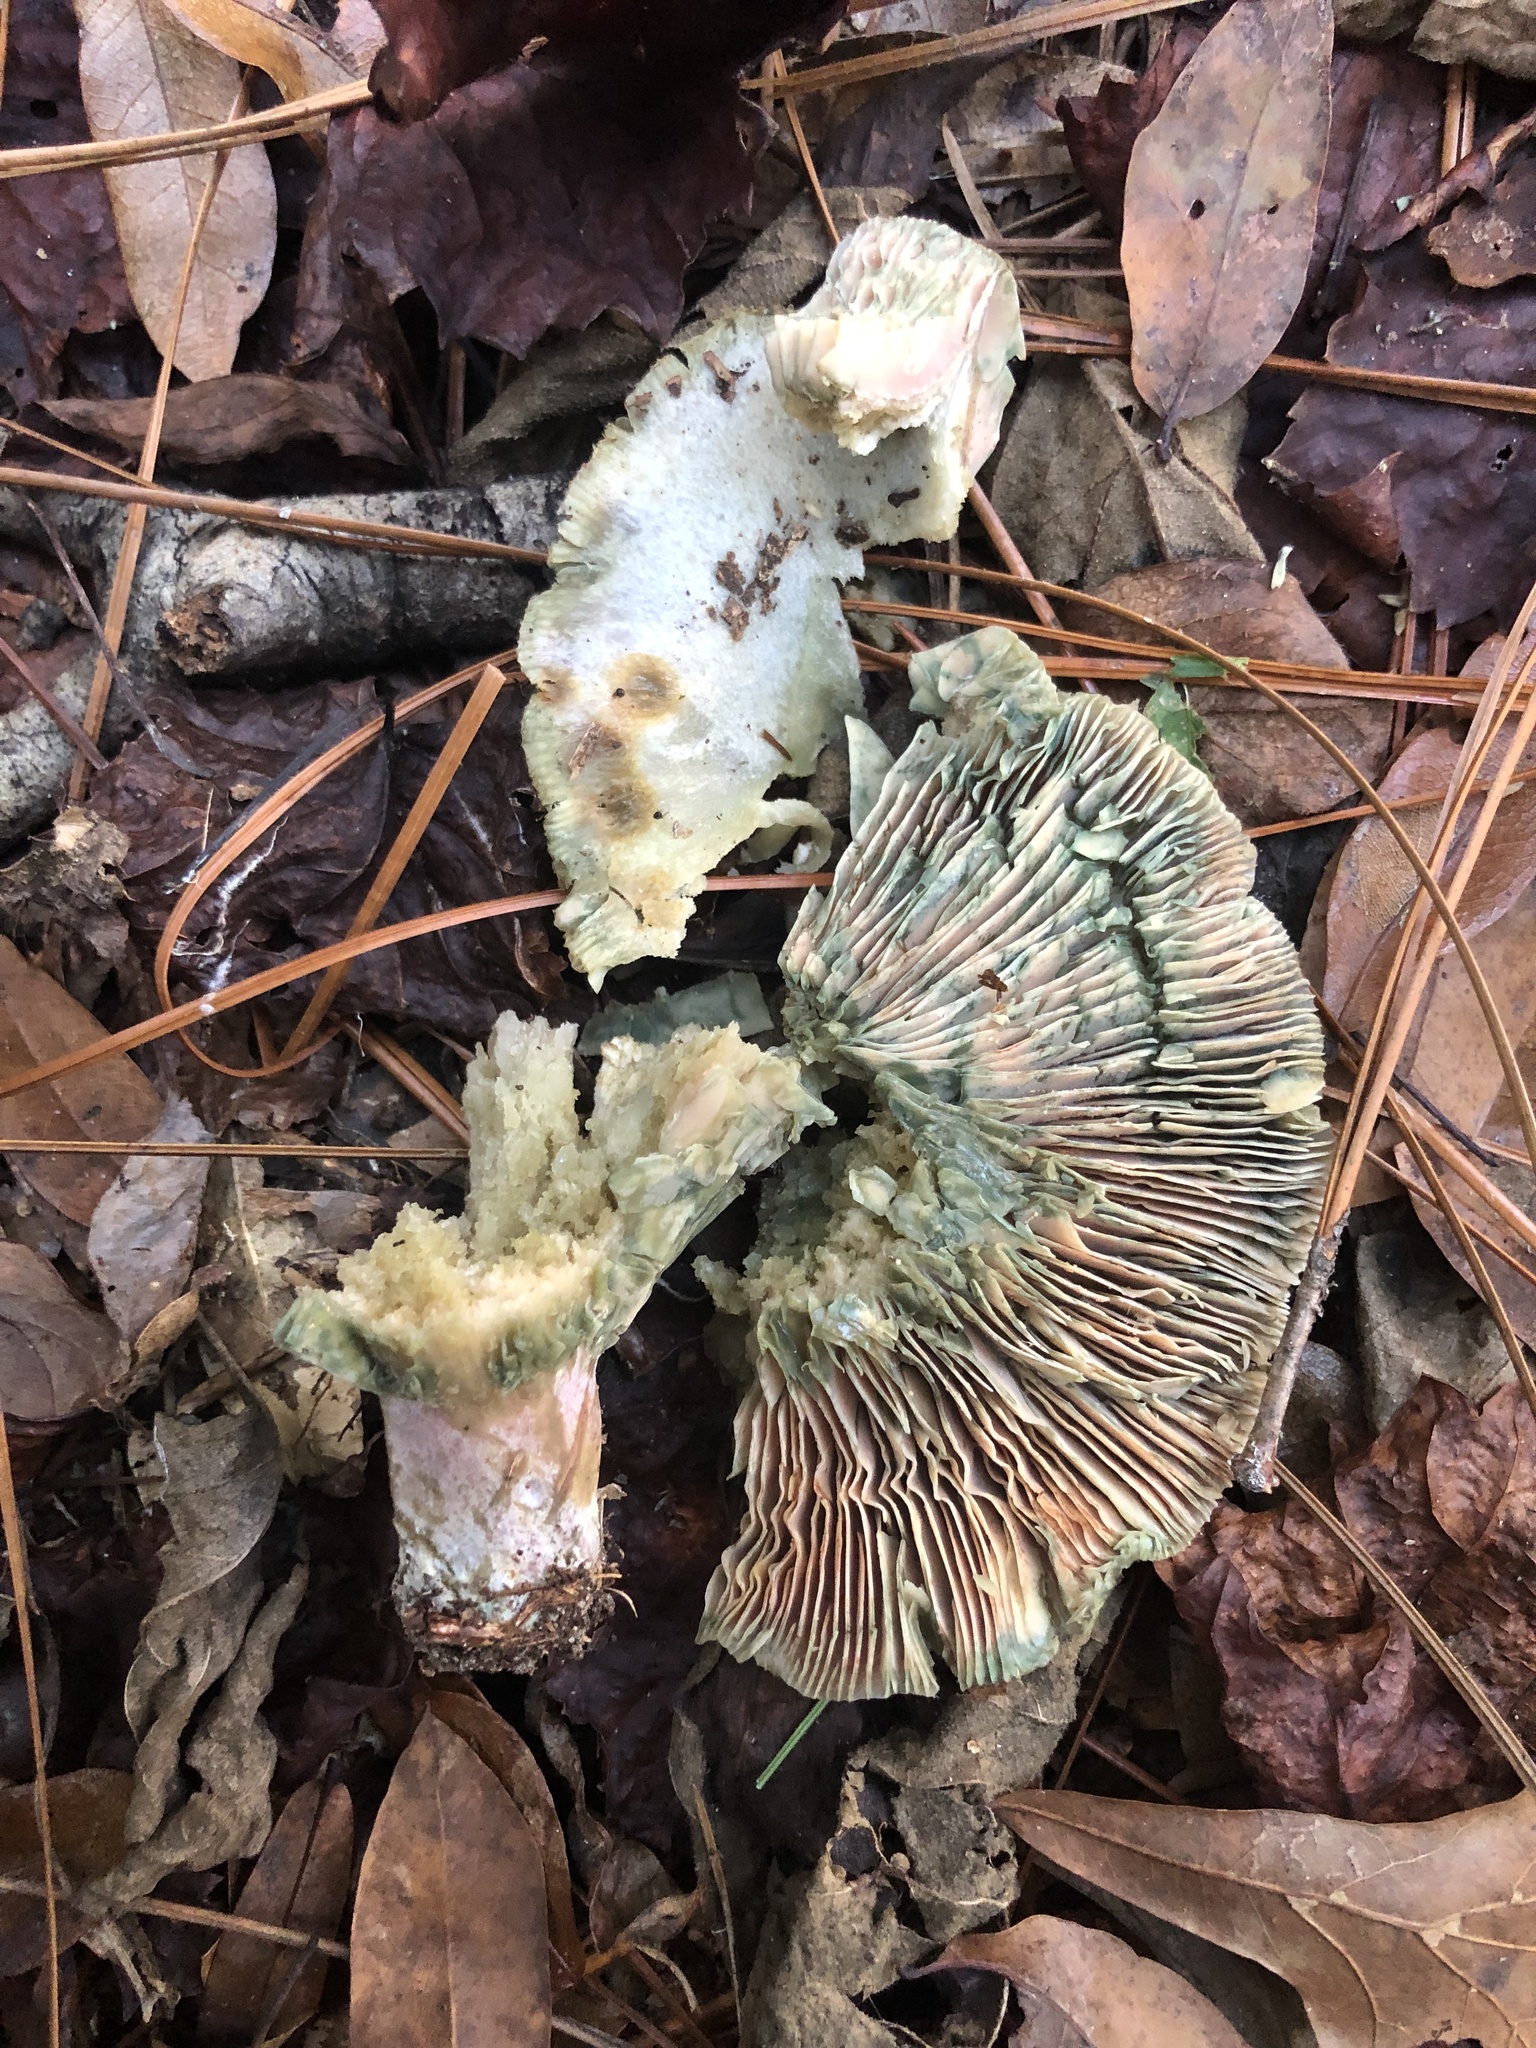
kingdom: Fungi
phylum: Basidiomycota
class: Agaricomycetes
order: Russulales
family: Russulaceae
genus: Lactarius
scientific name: Lactarius paradoxus
